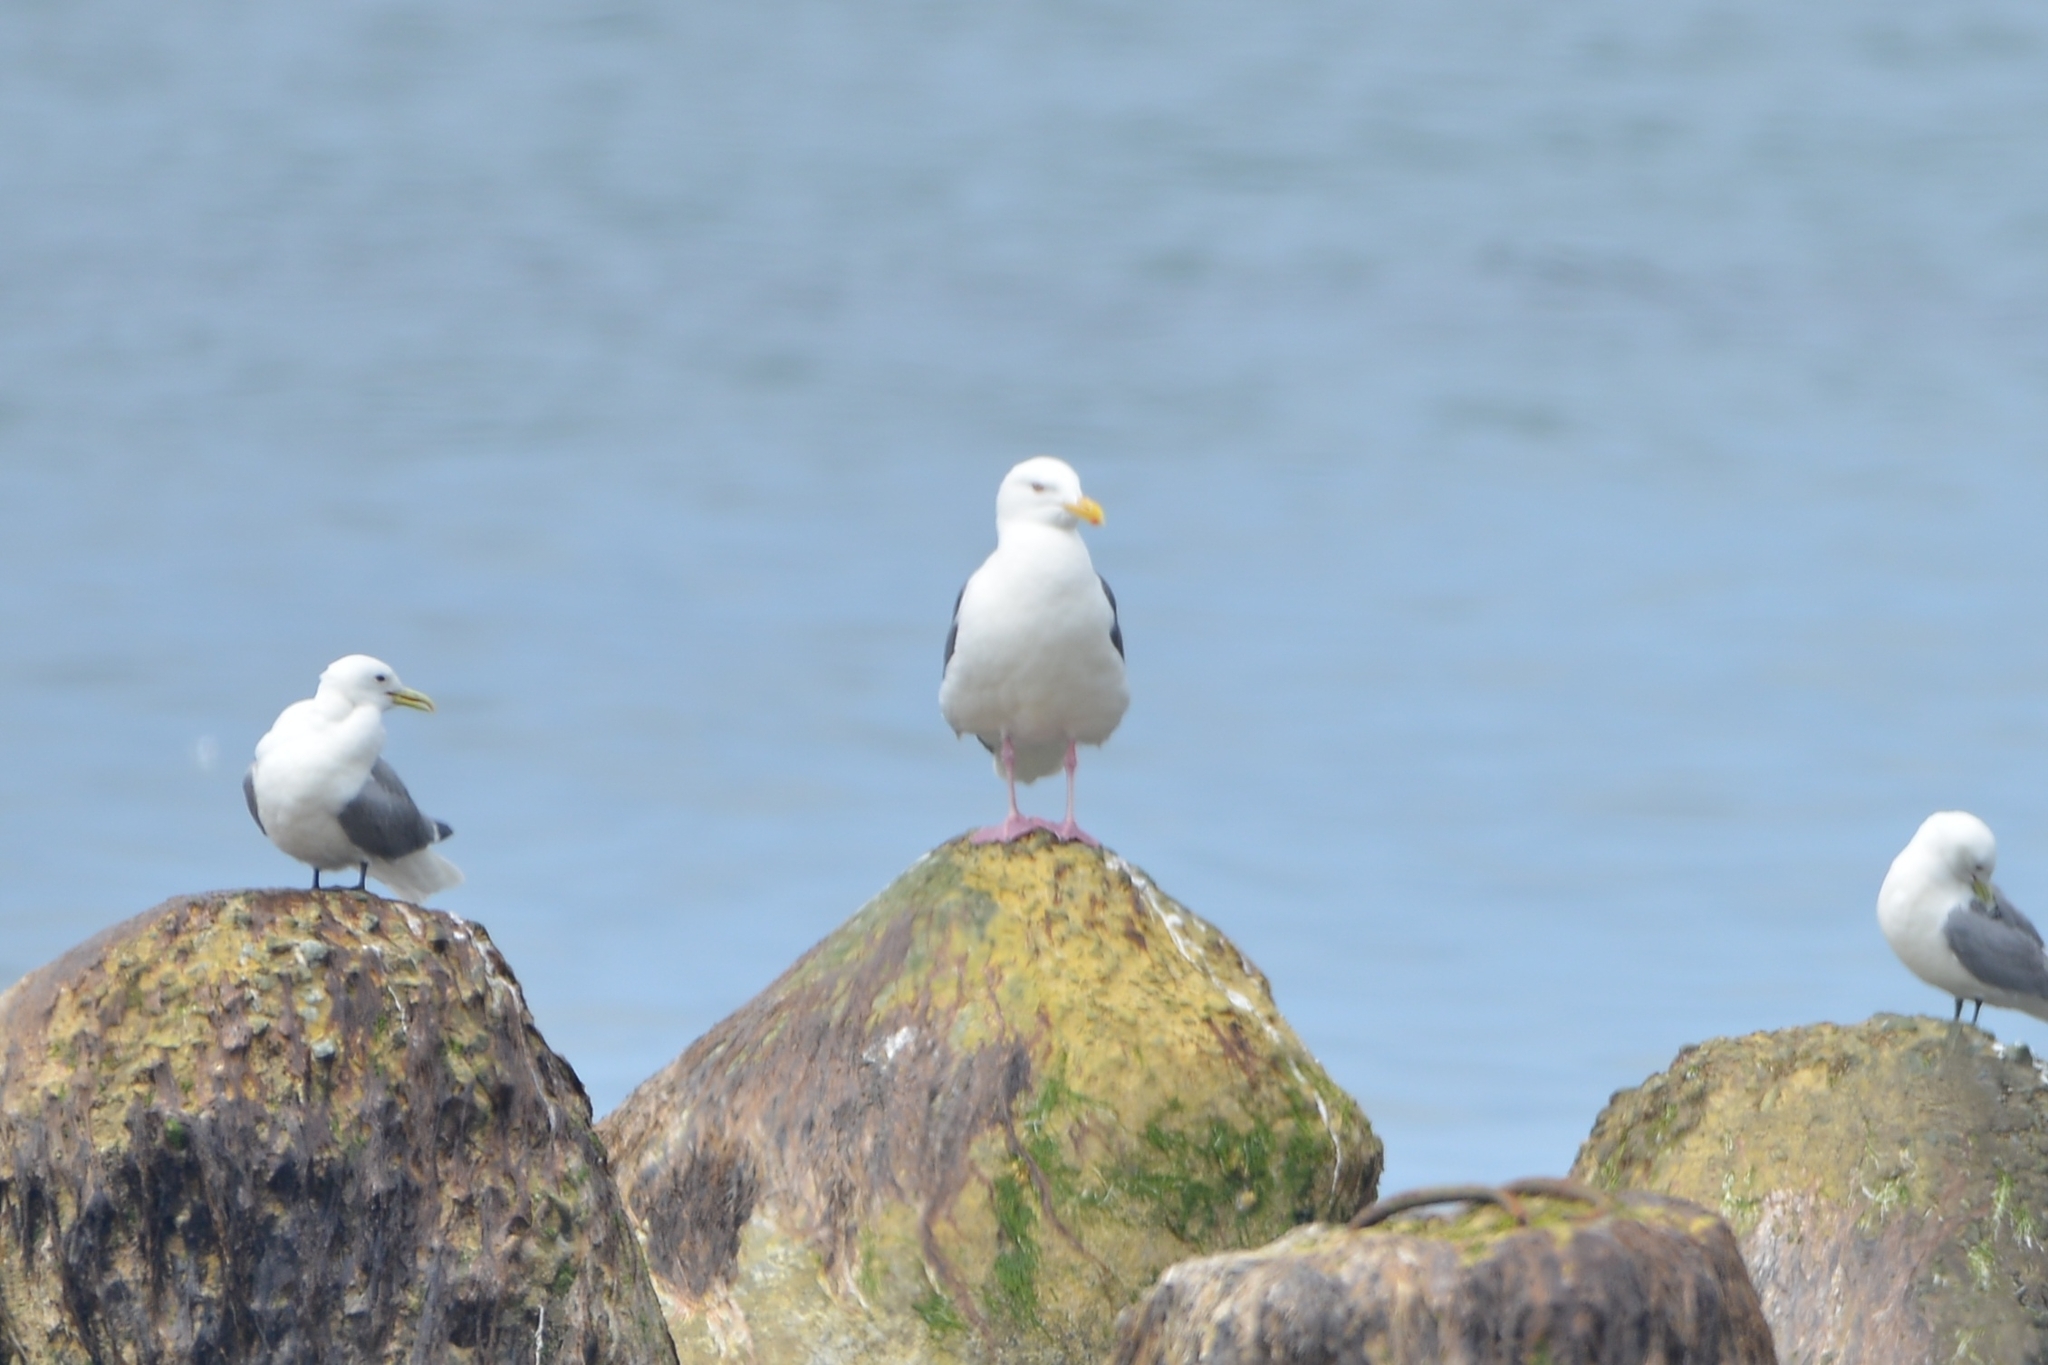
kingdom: Animalia
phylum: Chordata
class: Aves
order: Charadriiformes
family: Laridae
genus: Larus
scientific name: Larus schistisagus
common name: Slaty-backed gull
